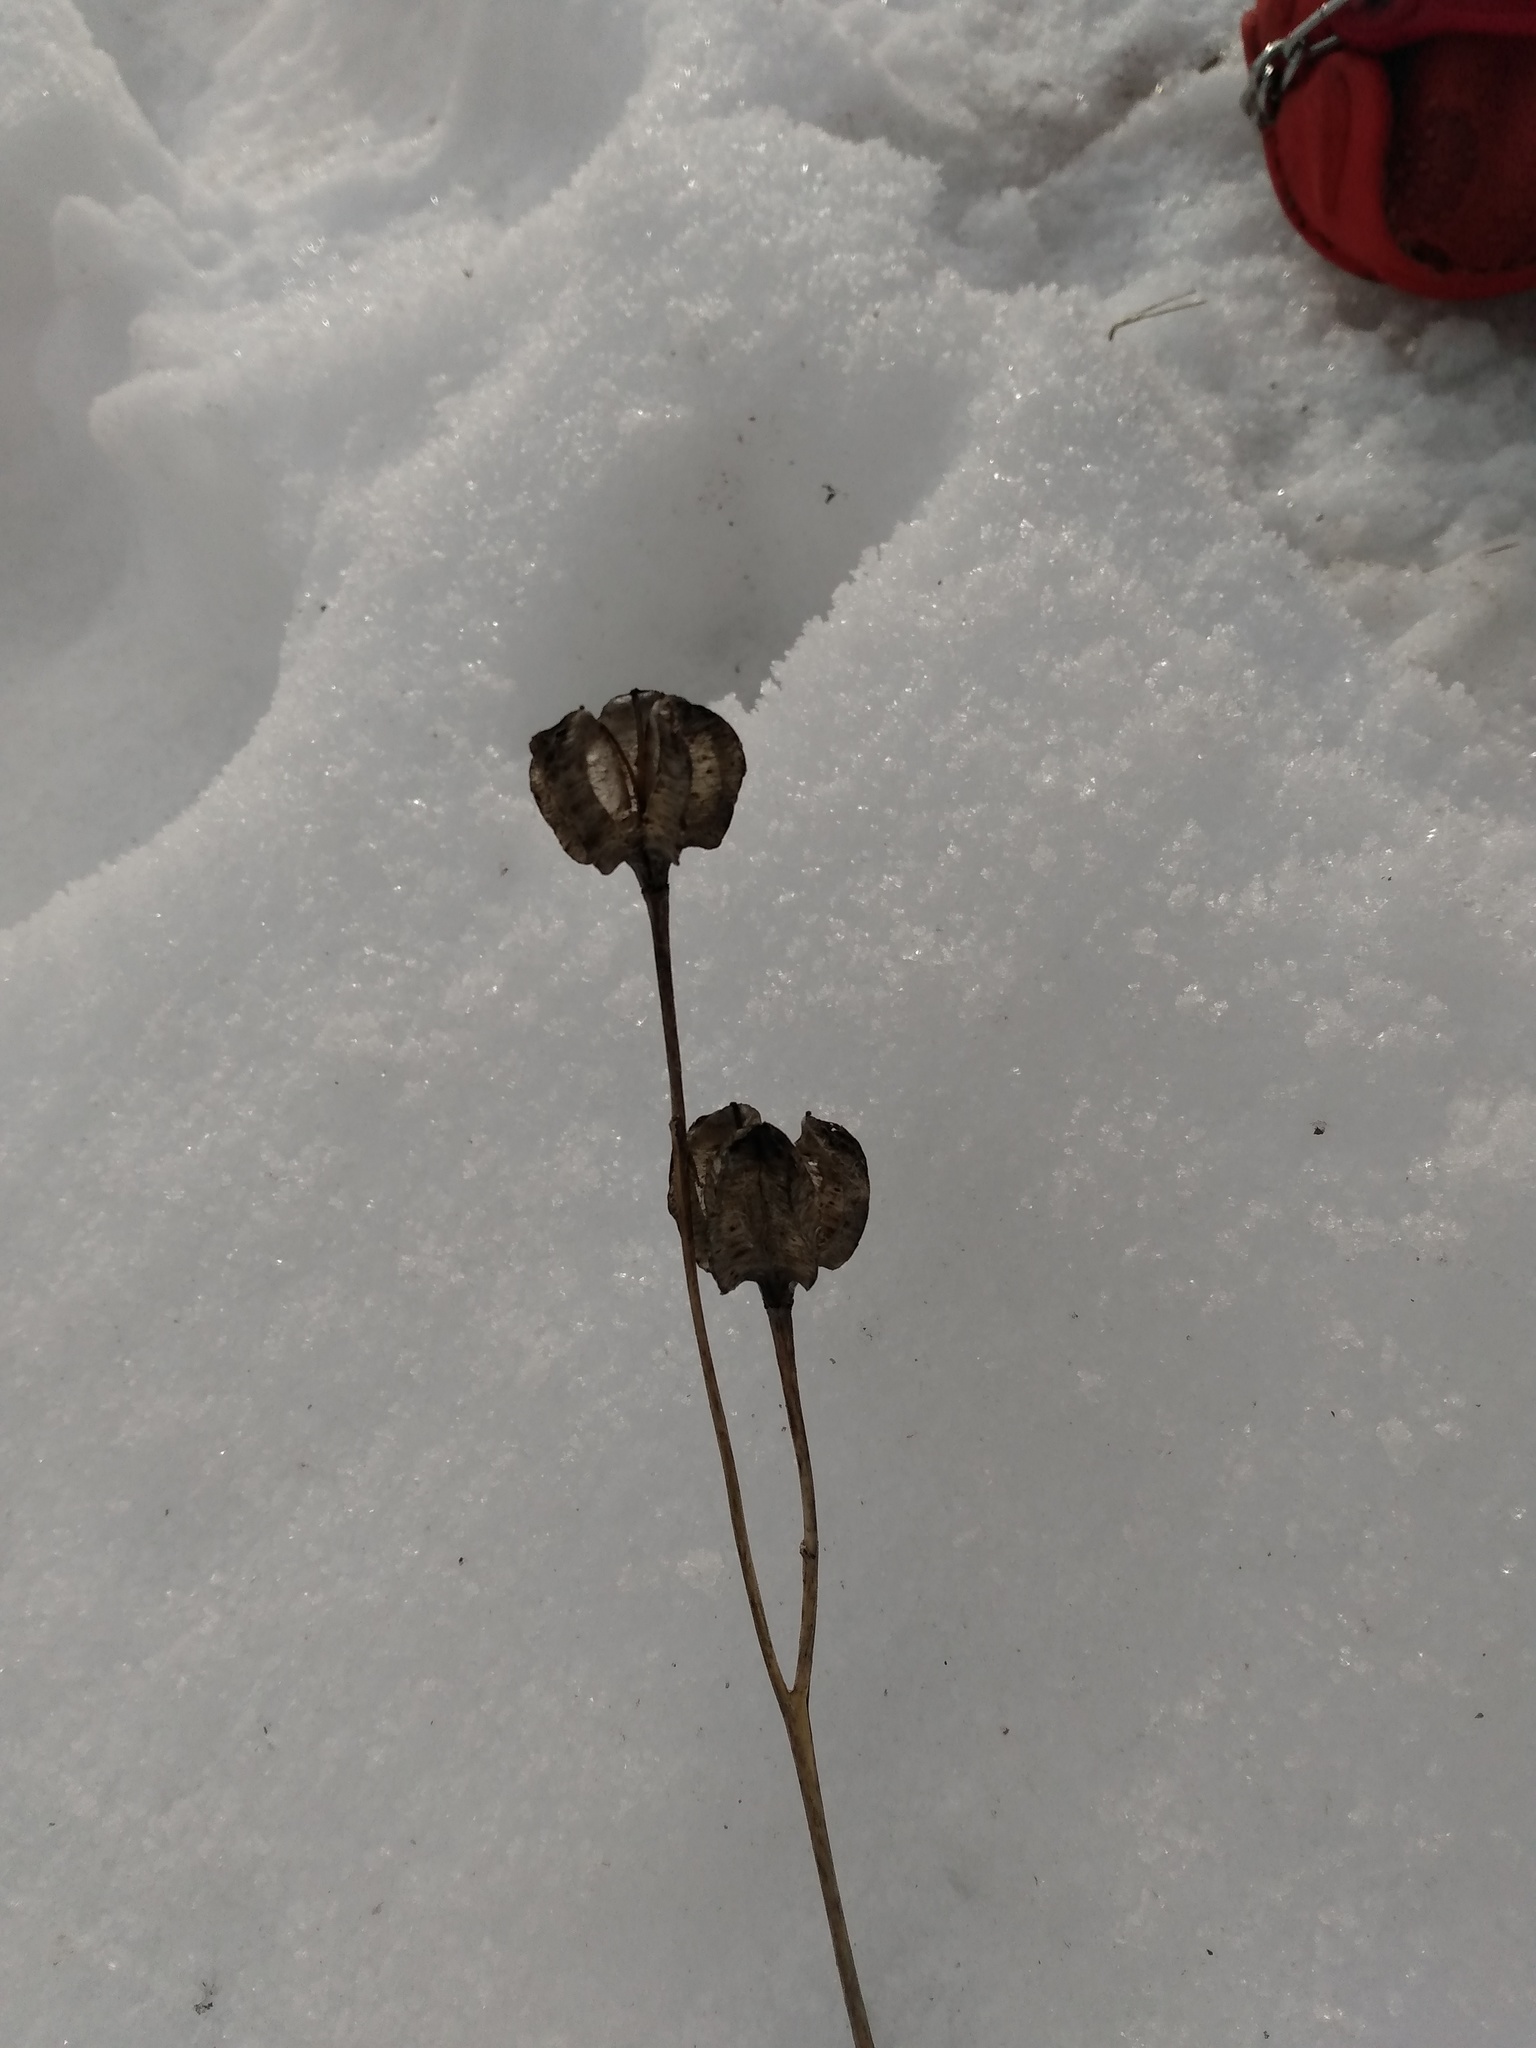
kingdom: Plantae
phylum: Tracheophyta
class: Liliopsida
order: Liliales
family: Liliaceae
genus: Fritillaria
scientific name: Fritillaria affinis
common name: Ojai fritillary
